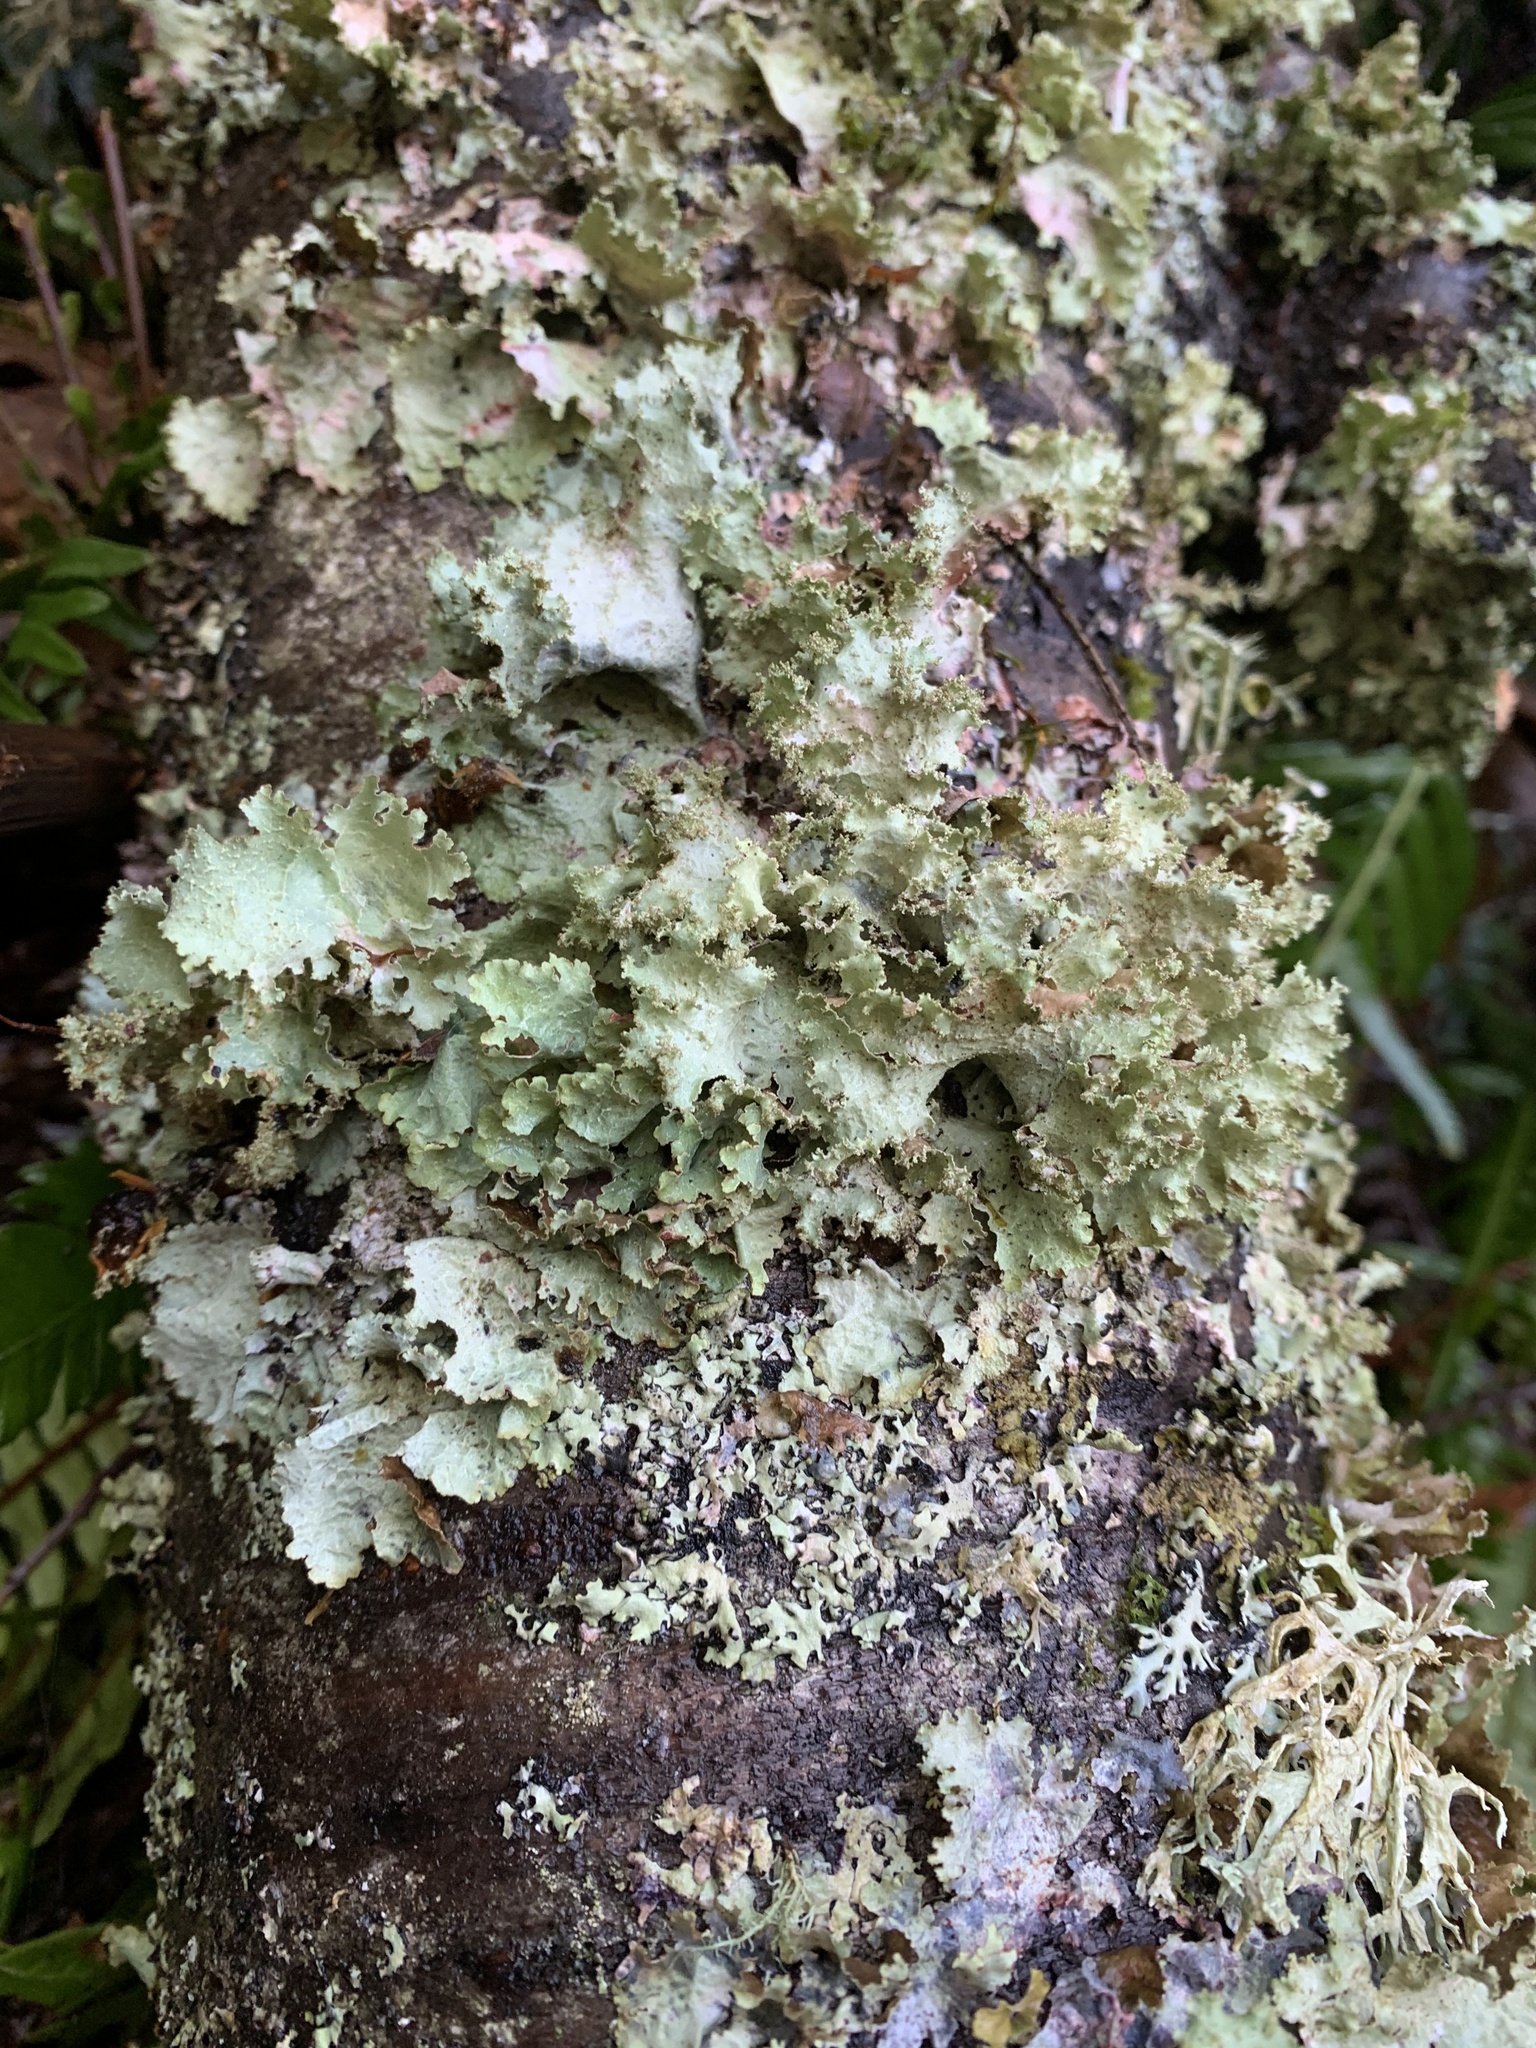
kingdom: Fungi
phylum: Ascomycota
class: Lecanoromycetes
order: Lecanorales
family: Parmeliaceae
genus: Platismatia
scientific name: Platismatia glauca
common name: Varied rag lichen
